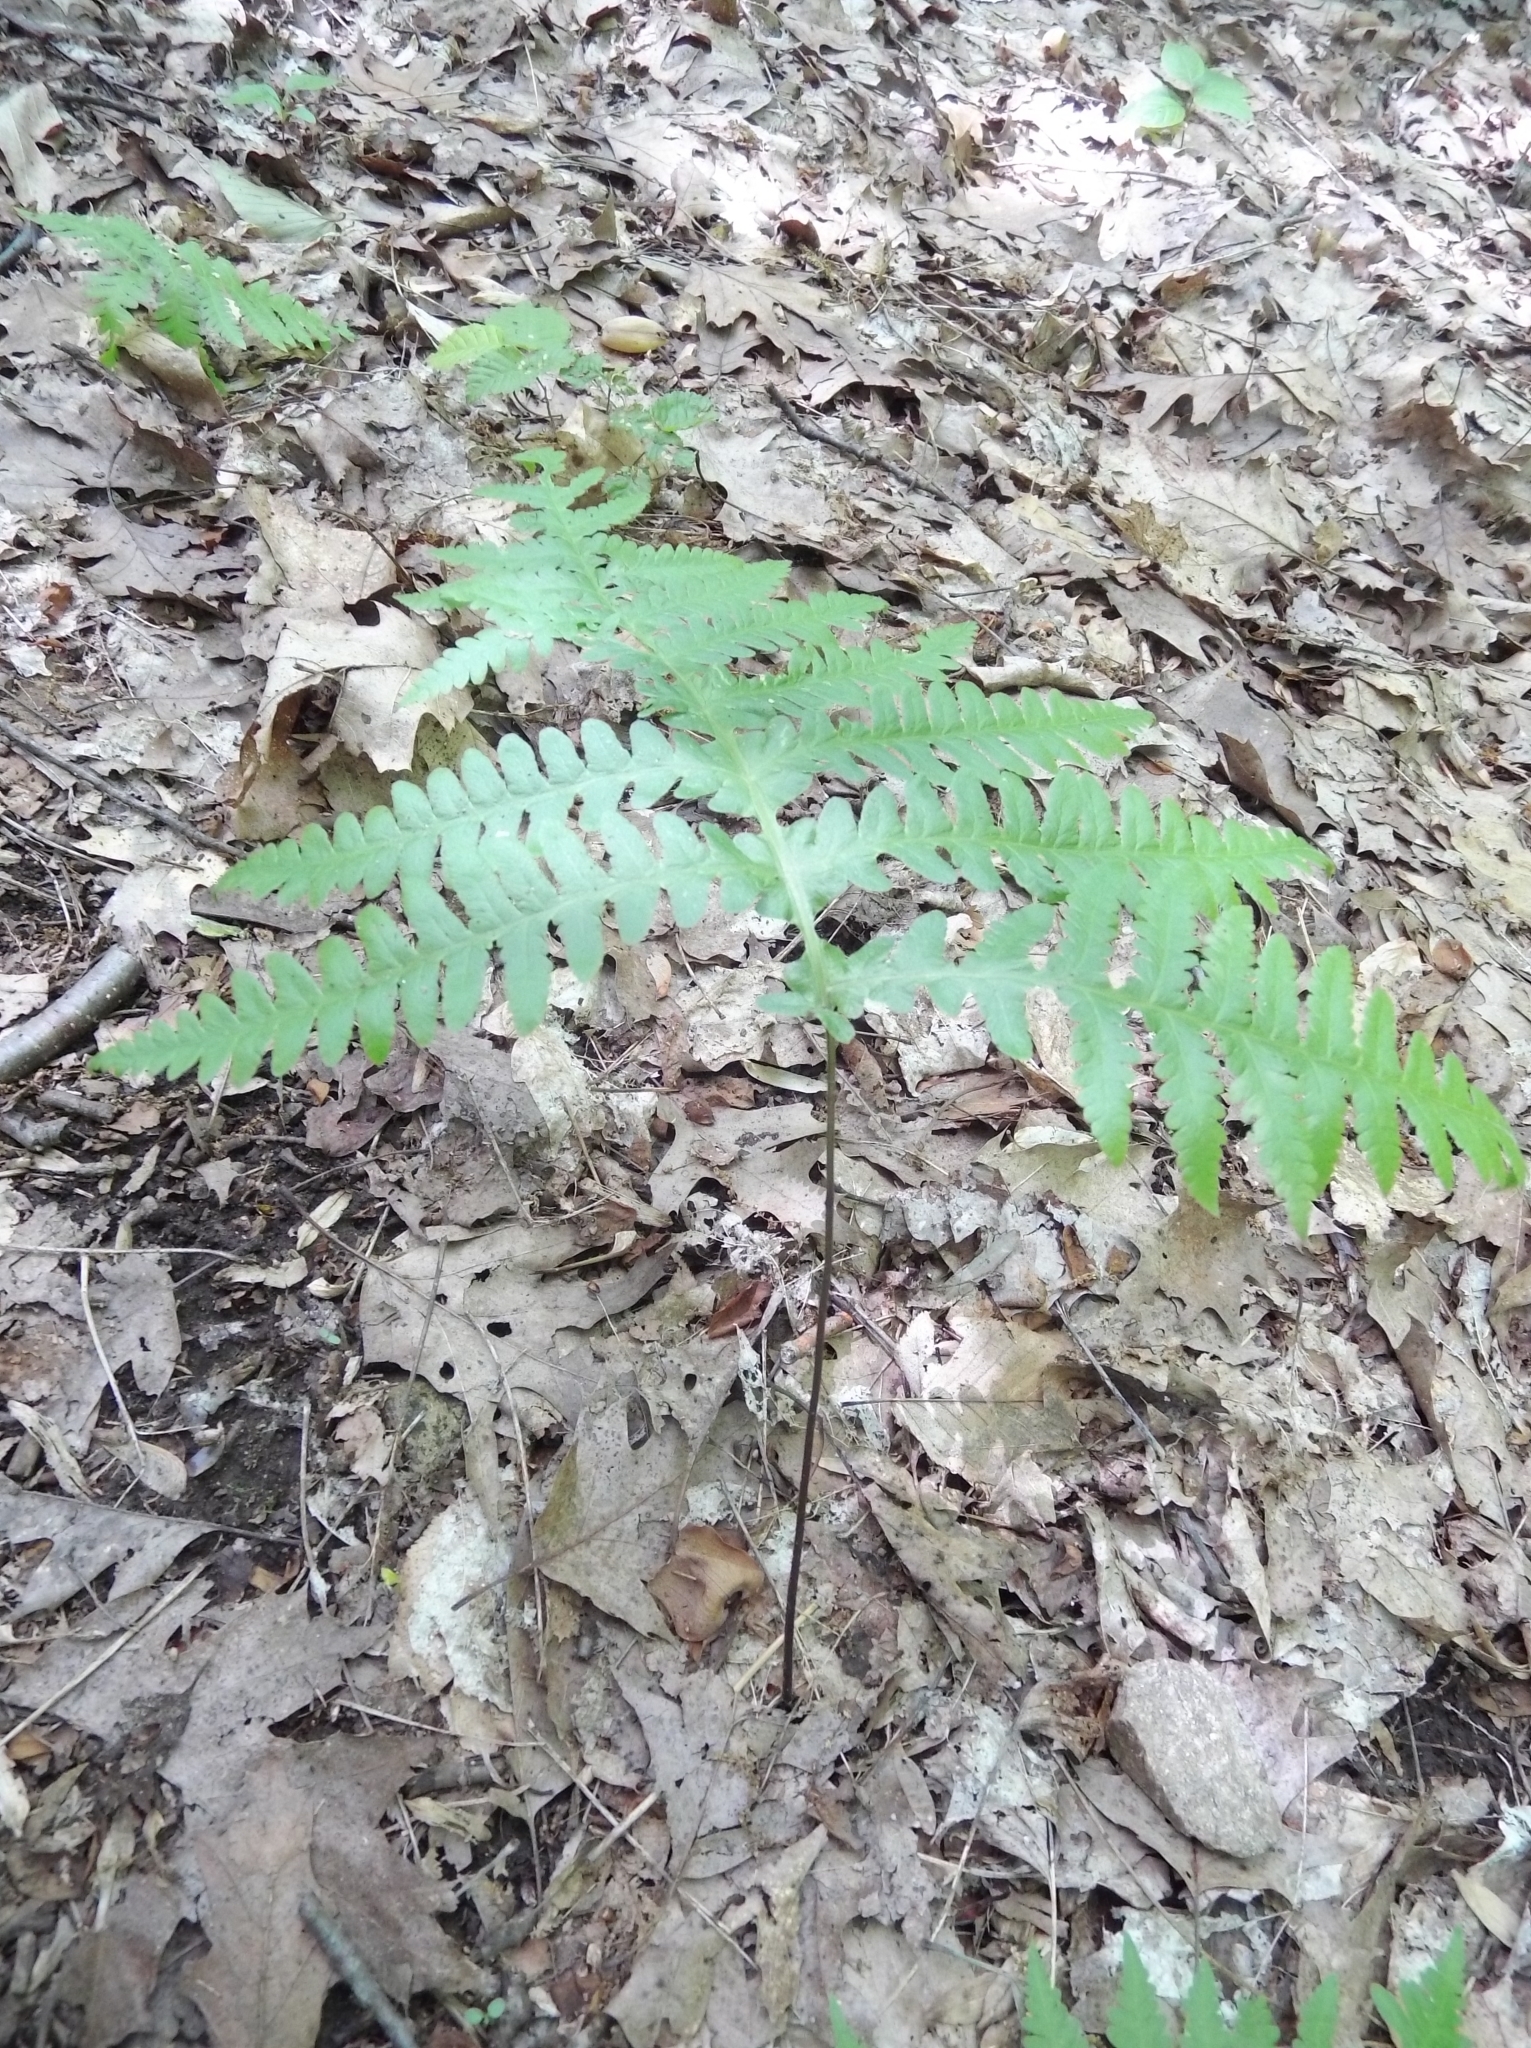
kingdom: Plantae
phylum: Tracheophyta
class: Polypodiopsida
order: Polypodiales
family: Thelypteridaceae
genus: Phegopteris
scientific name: Phegopteris hexagonoptera
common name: Broad beech fern
